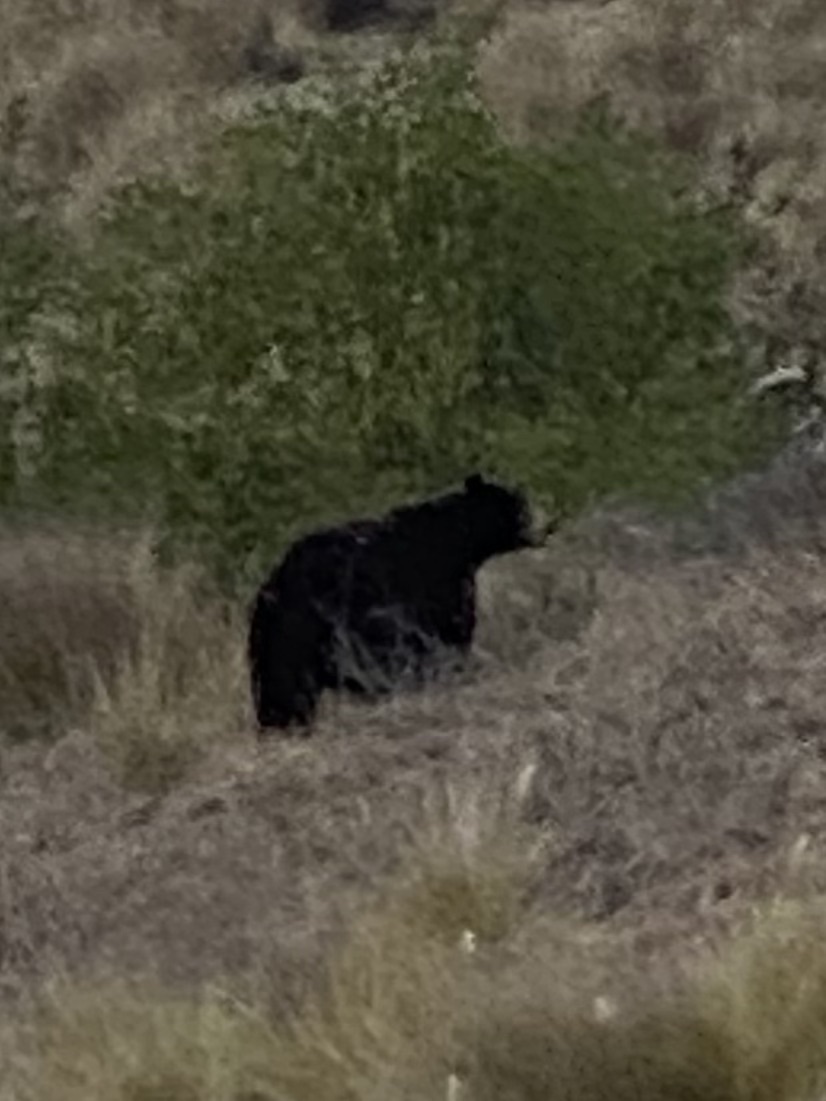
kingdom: Animalia
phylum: Chordata
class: Mammalia
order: Carnivora
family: Ursidae
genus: Ursus
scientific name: Ursus americanus
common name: American black bear
